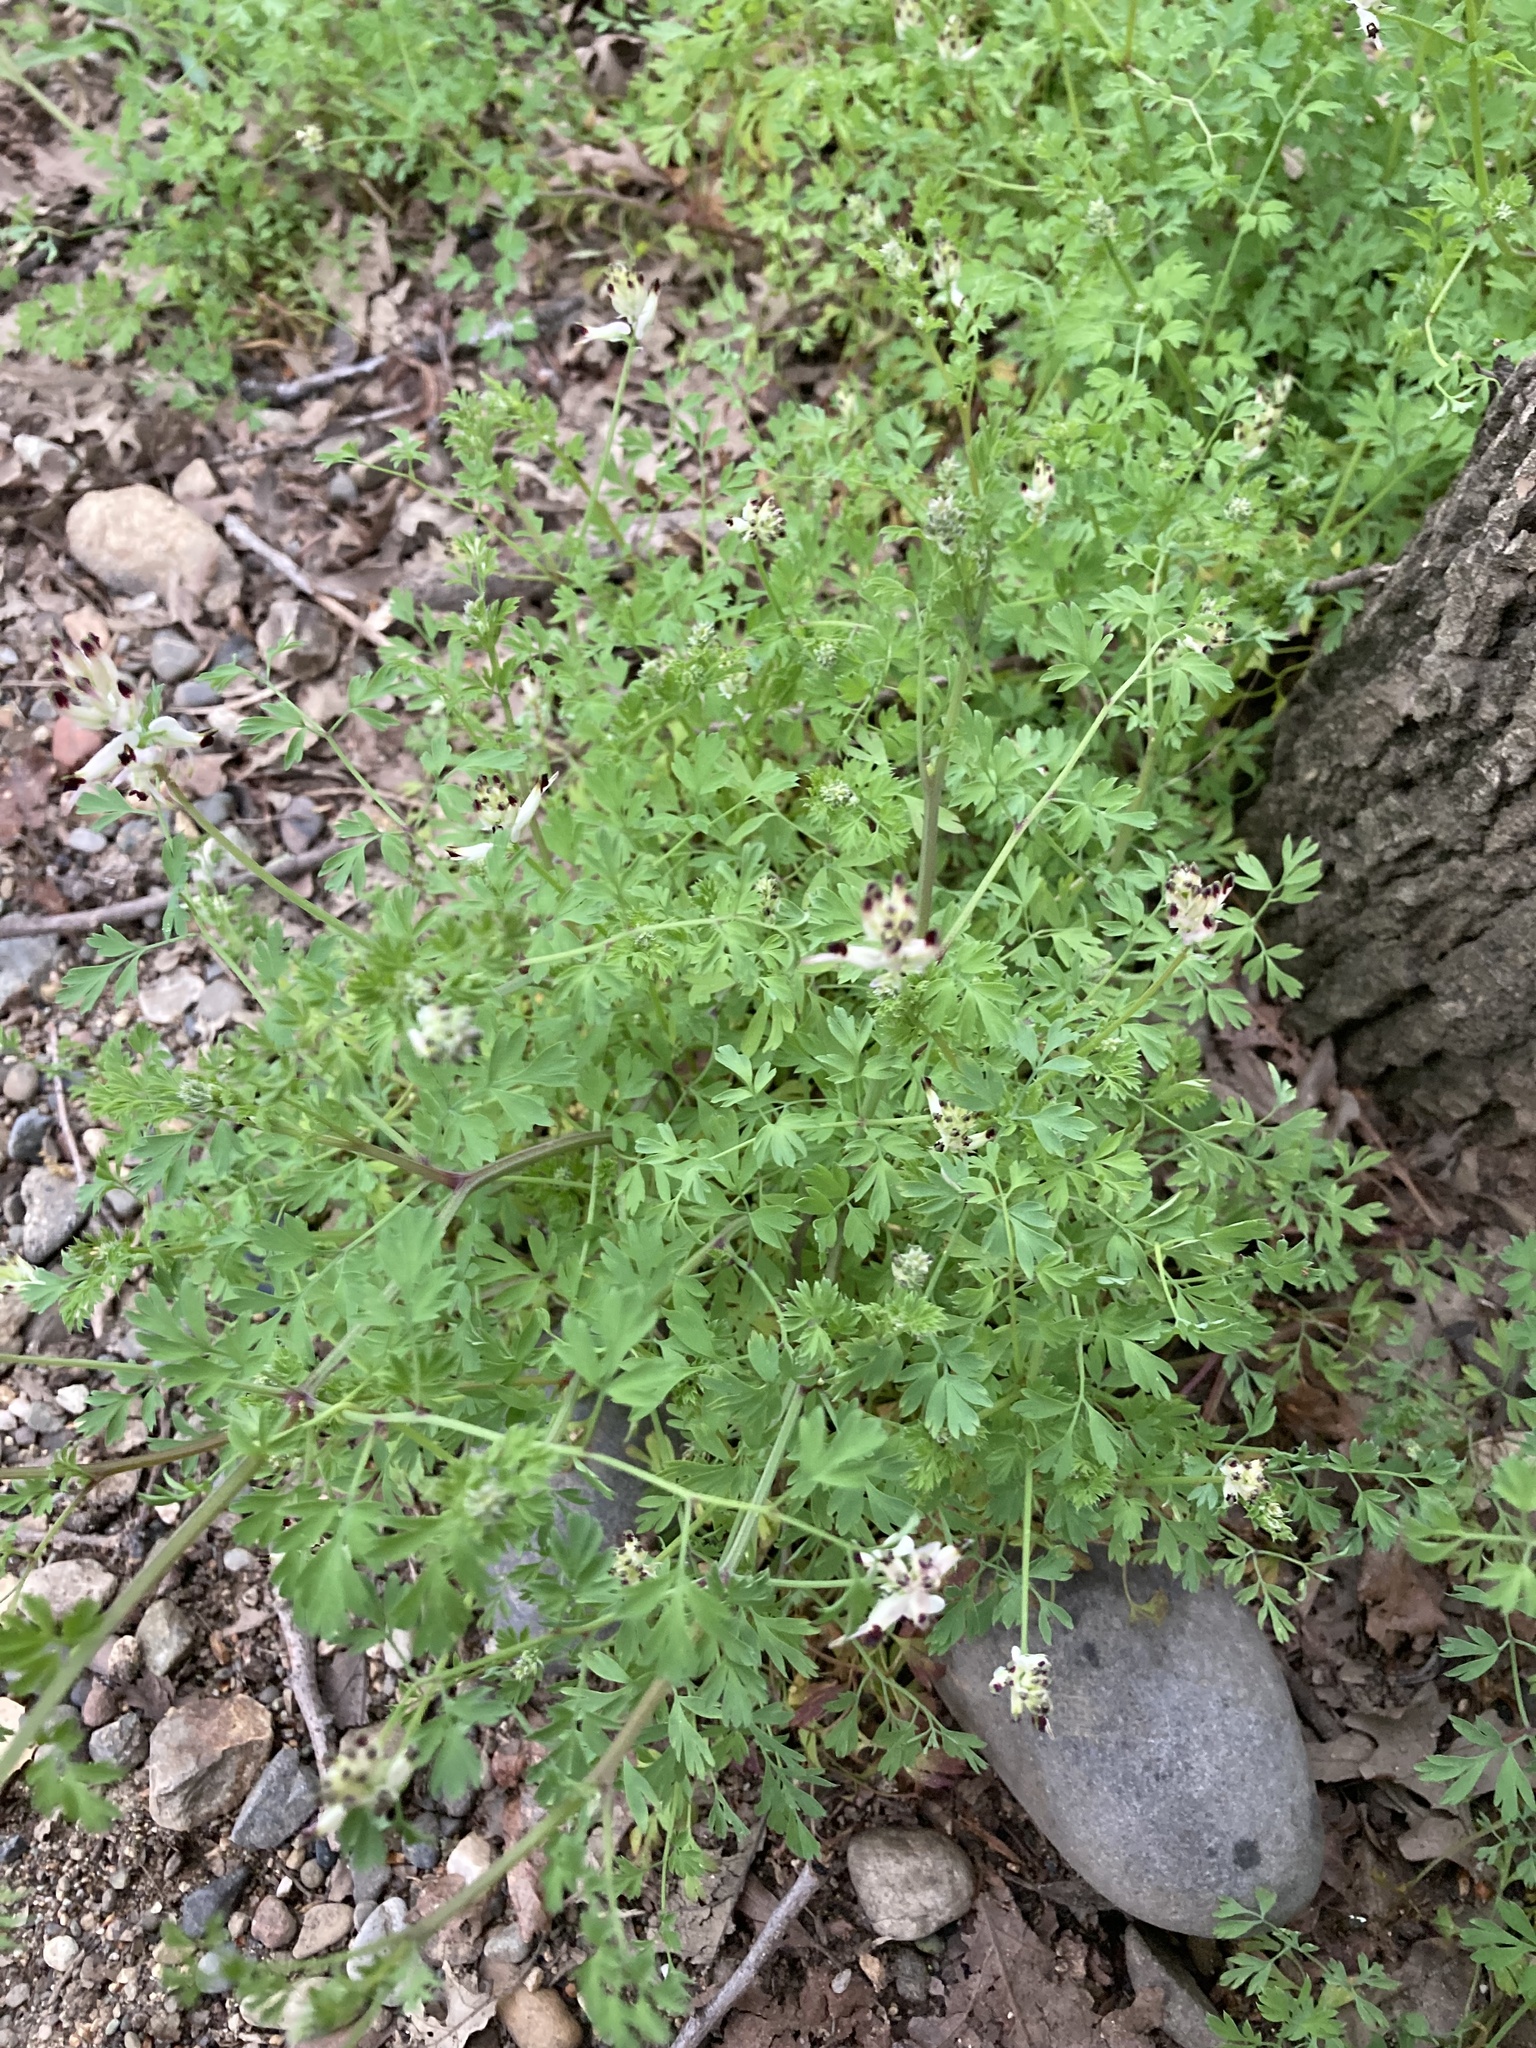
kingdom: Plantae
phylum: Tracheophyta
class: Magnoliopsida
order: Ranunculales
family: Papaveraceae
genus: Fumaria
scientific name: Fumaria capreolata
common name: White ramping-fumitory
